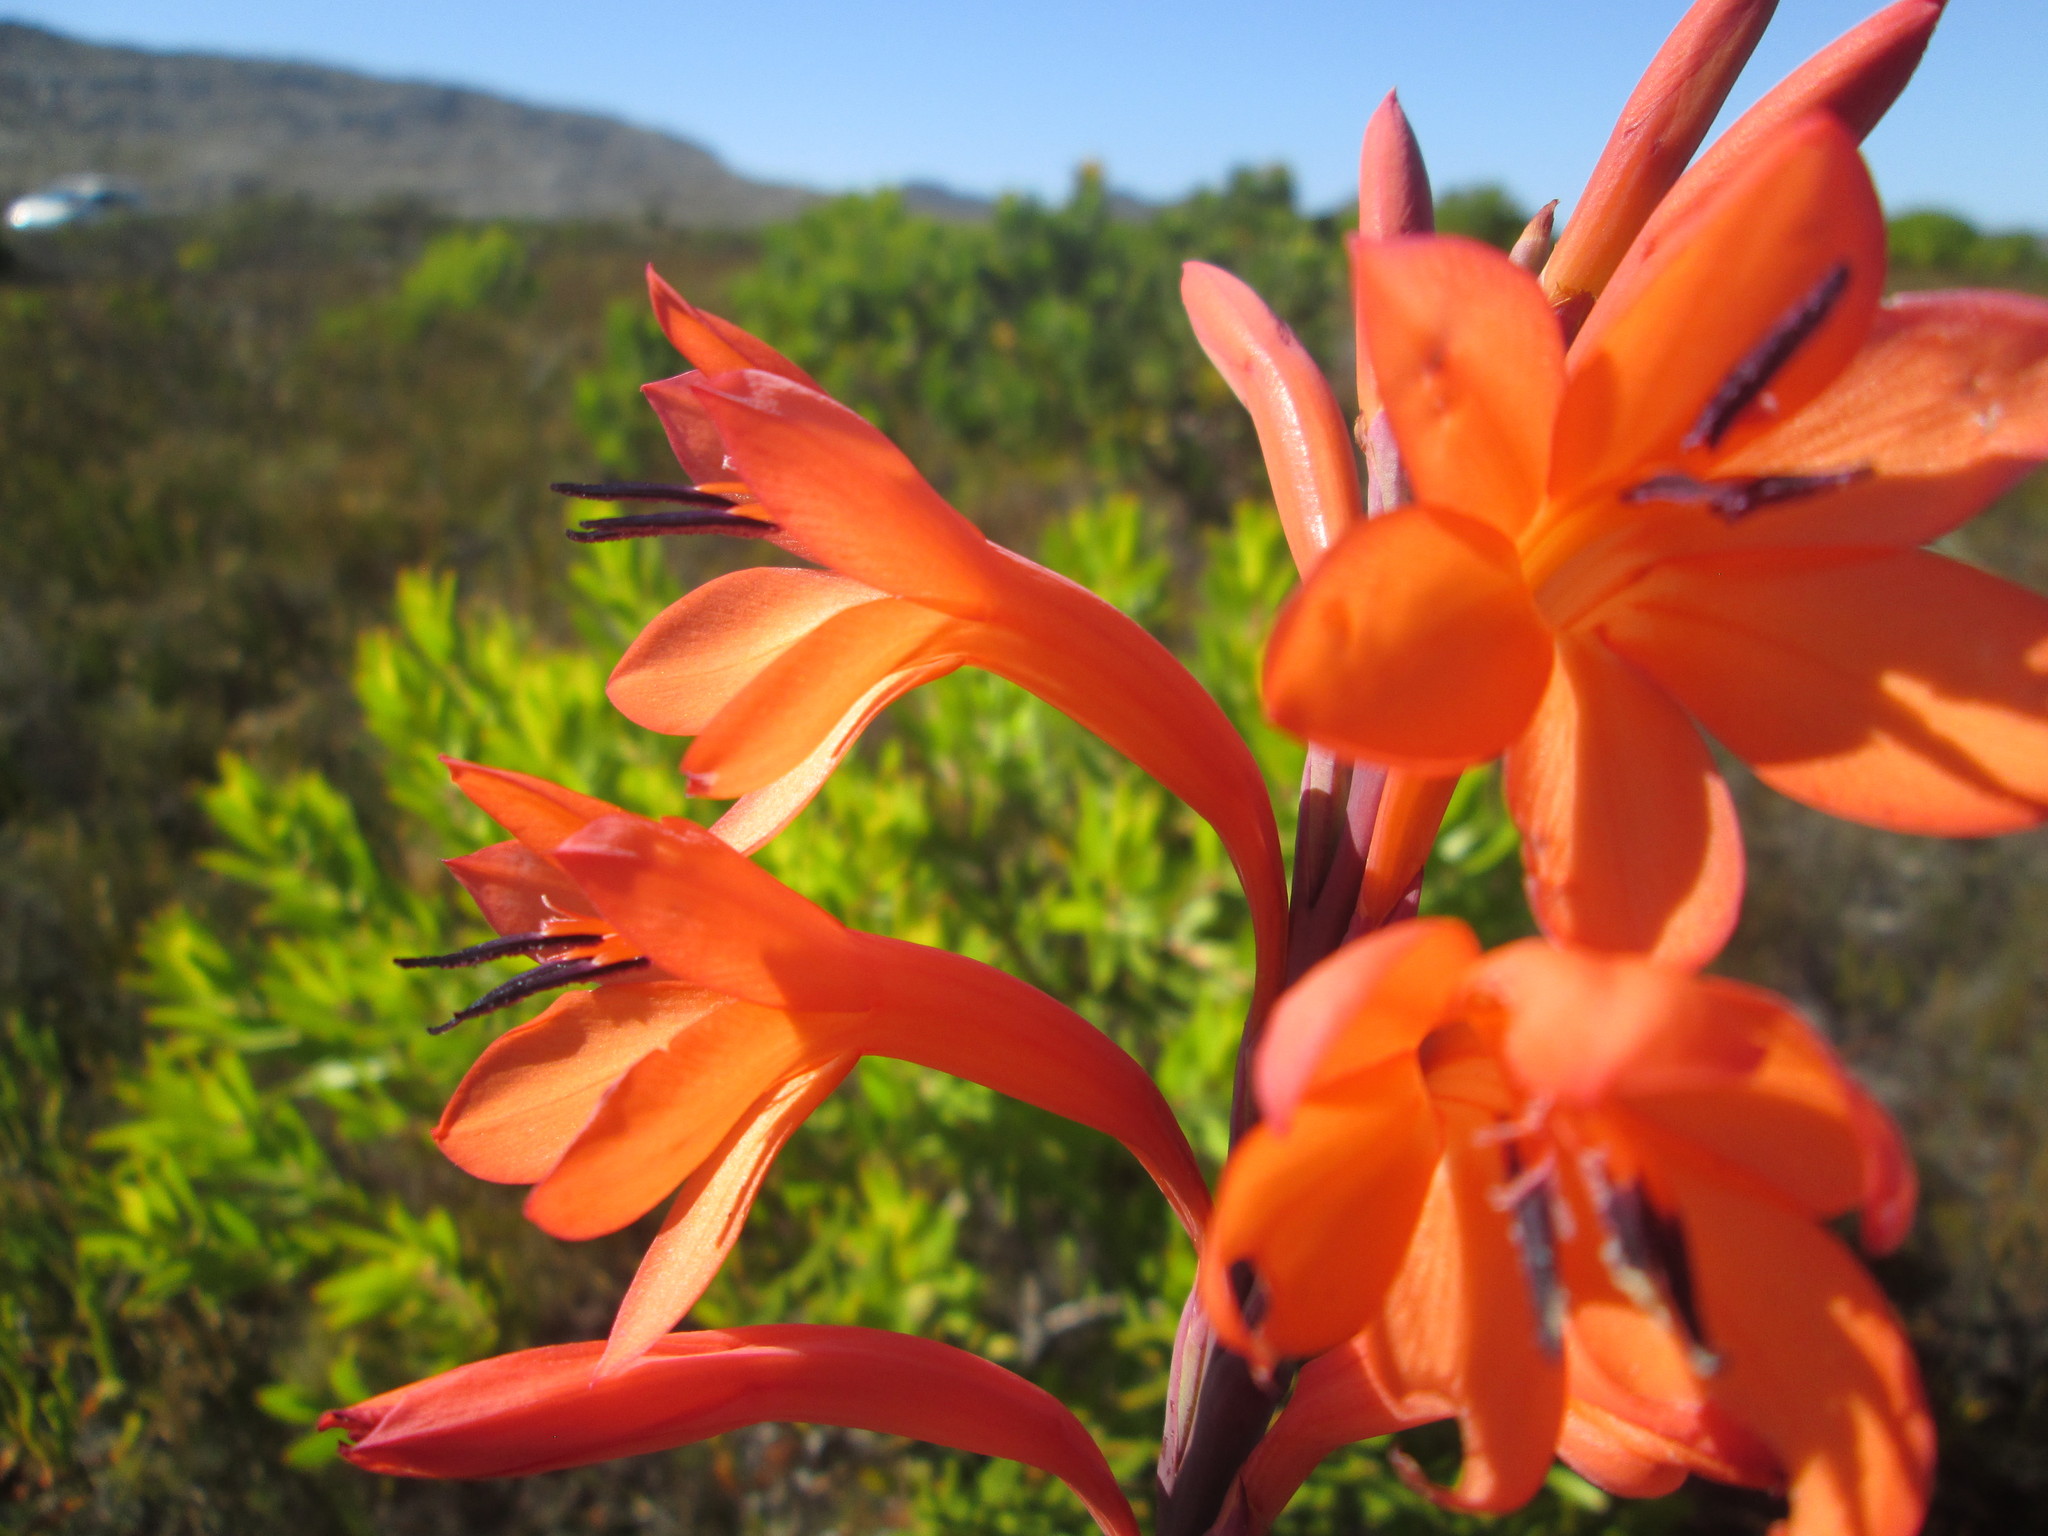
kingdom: Plantae
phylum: Tracheophyta
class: Liliopsida
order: Asparagales
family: Iridaceae
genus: Watsonia
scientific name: Watsonia tabularis
